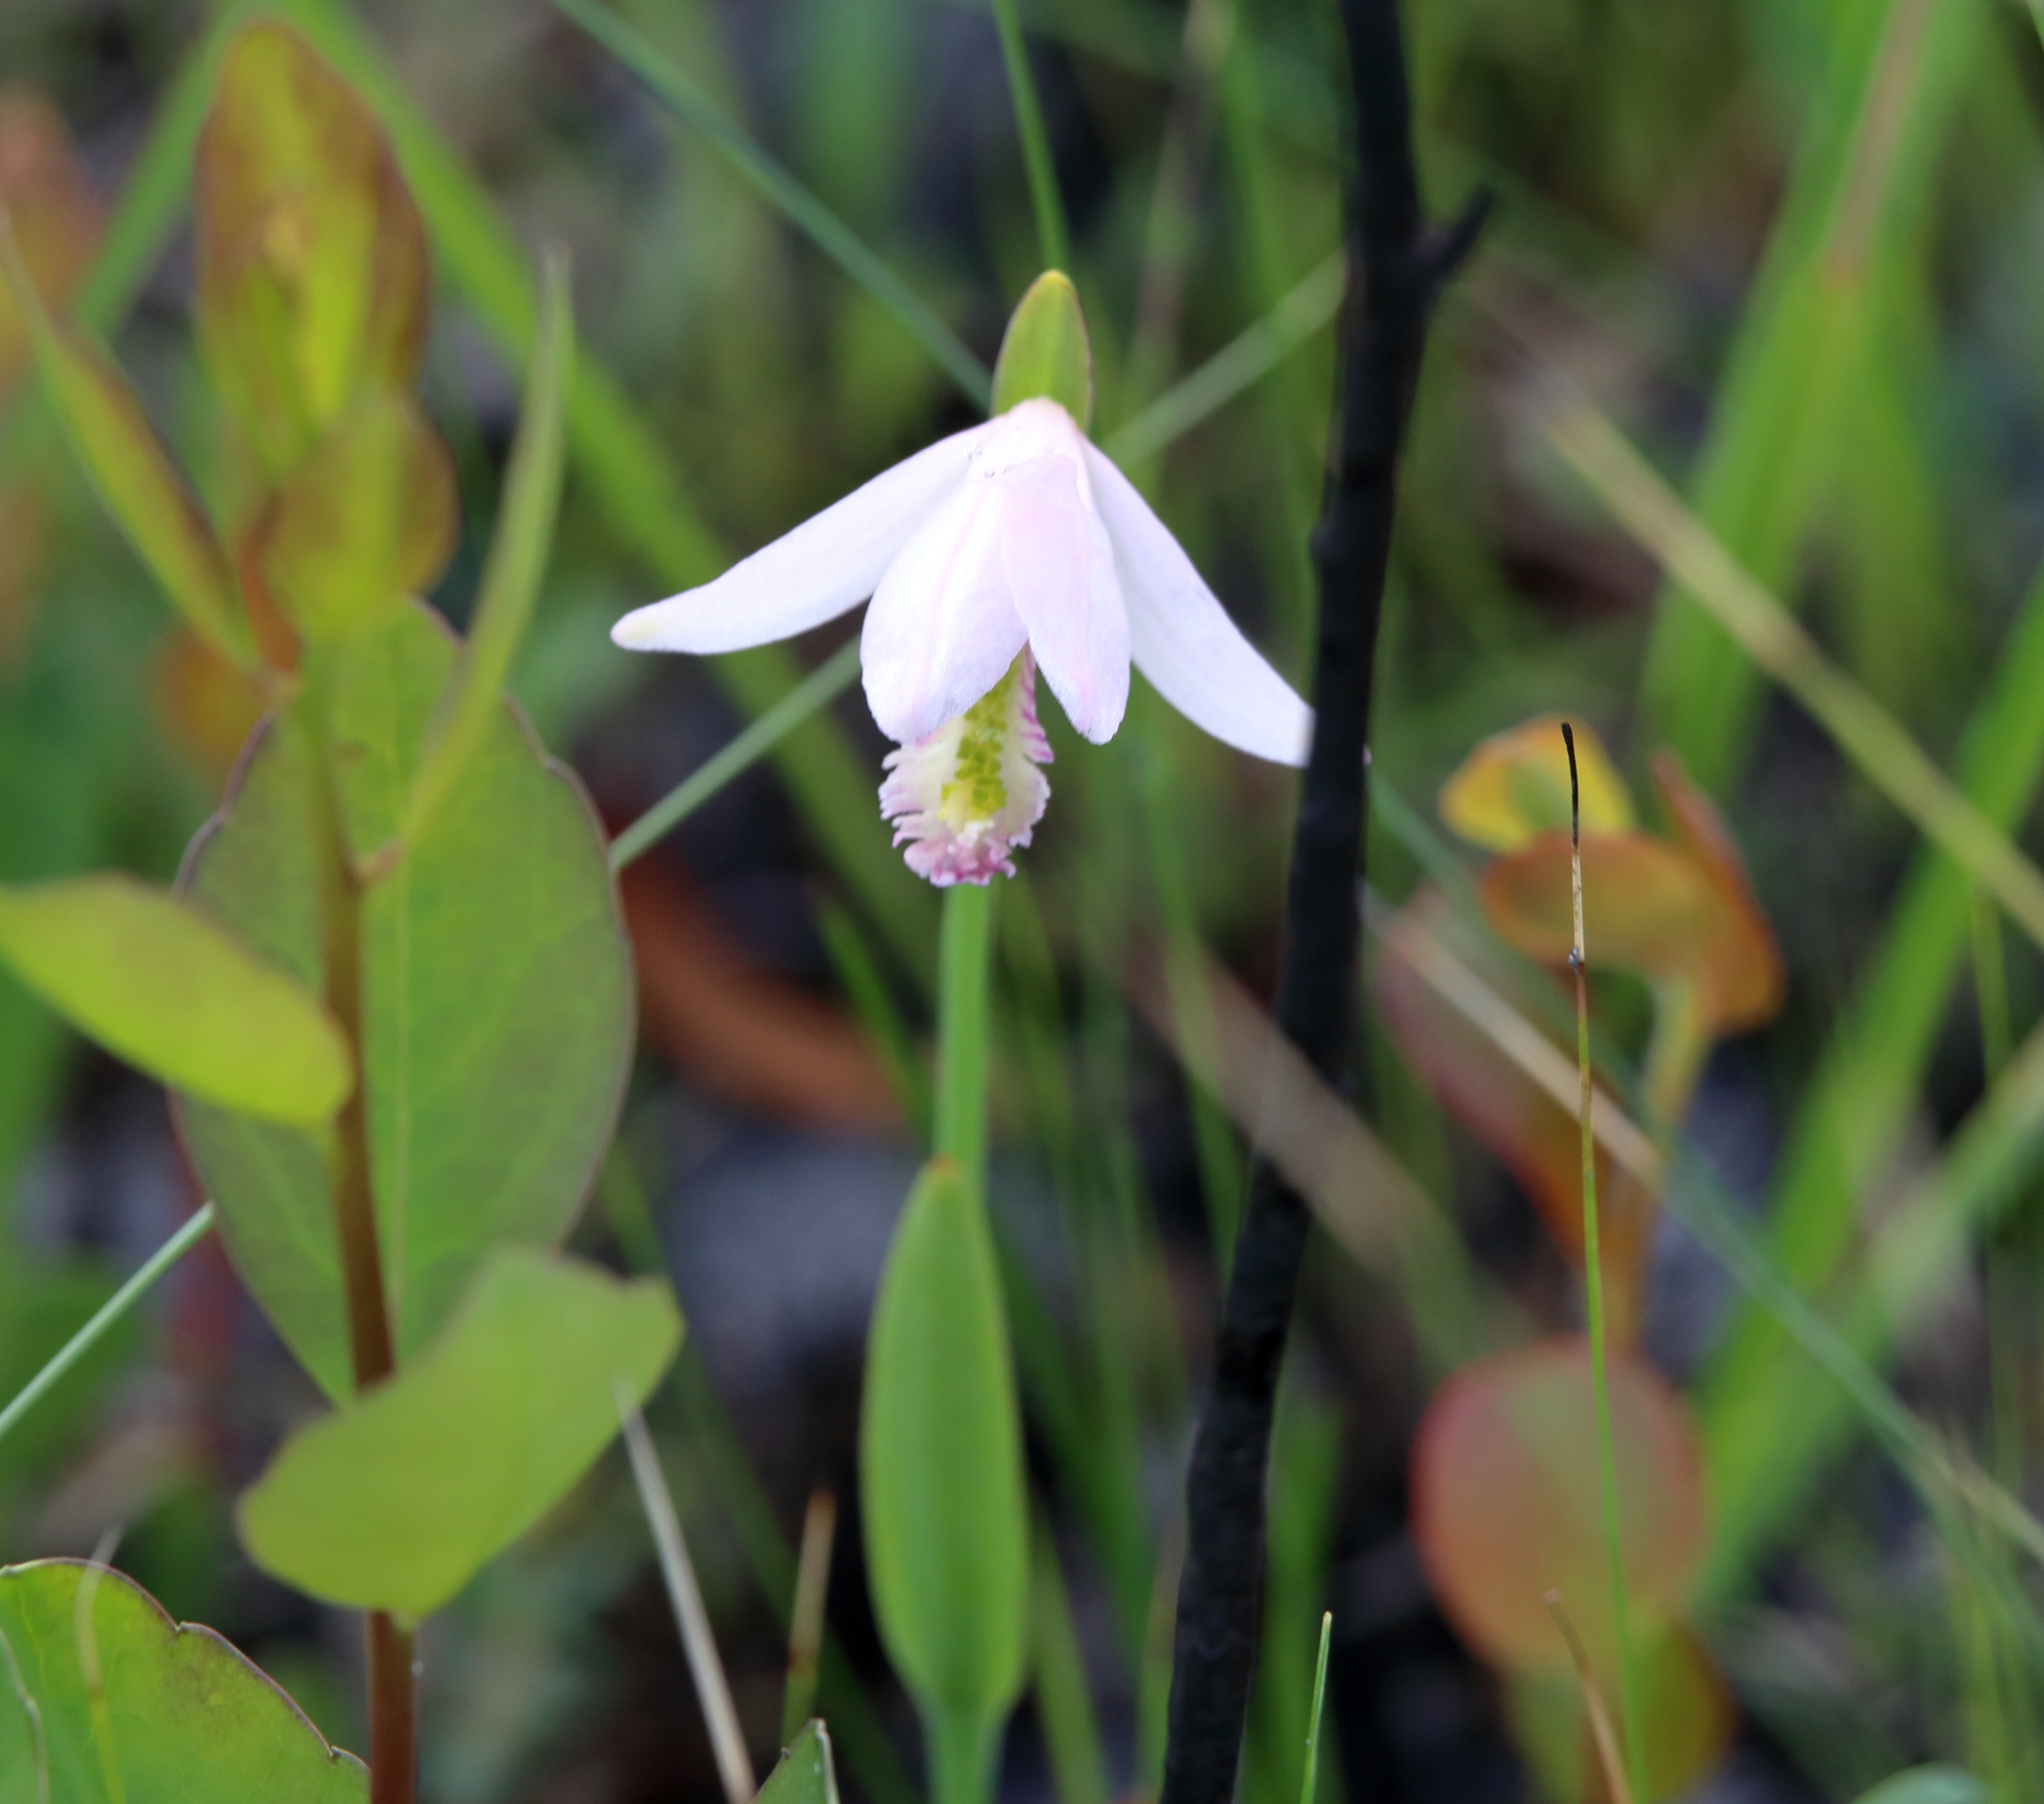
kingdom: Plantae
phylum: Tracheophyta
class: Liliopsida
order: Asparagales
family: Orchidaceae
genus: Pogonia
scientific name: Pogonia ophioglossoides
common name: Rose pogonia
